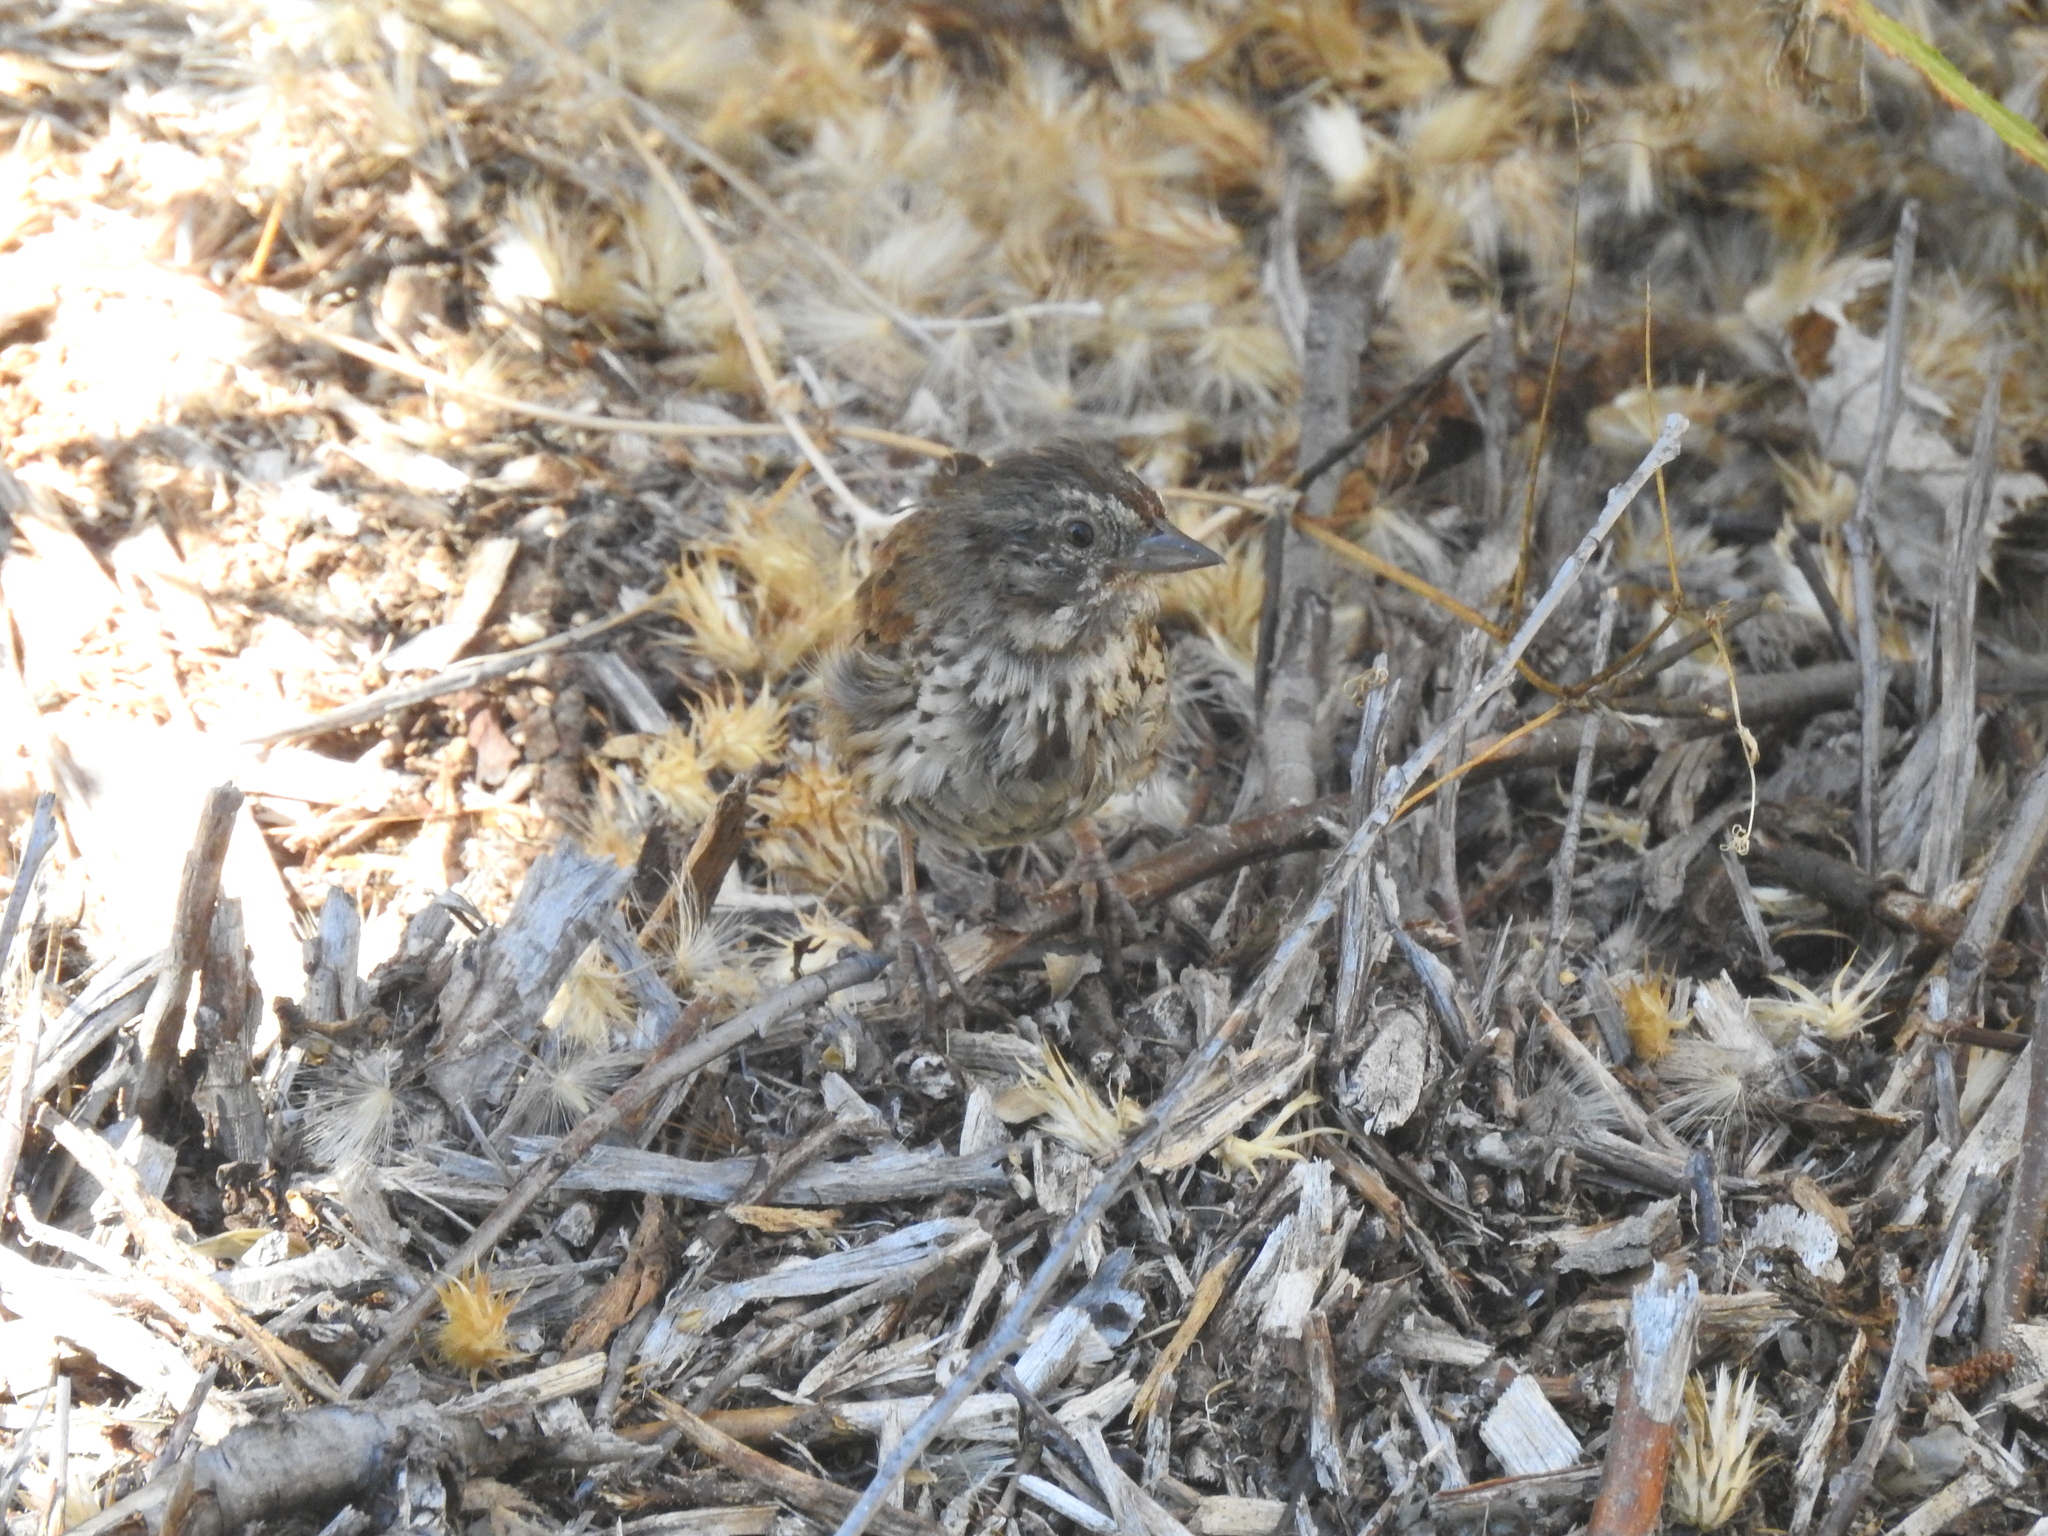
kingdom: Animalia
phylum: Chordata
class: Aves
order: Passeriformes
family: Passerellidae
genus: Melospiza
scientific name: Melospiza melodia
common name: Song sparrow
